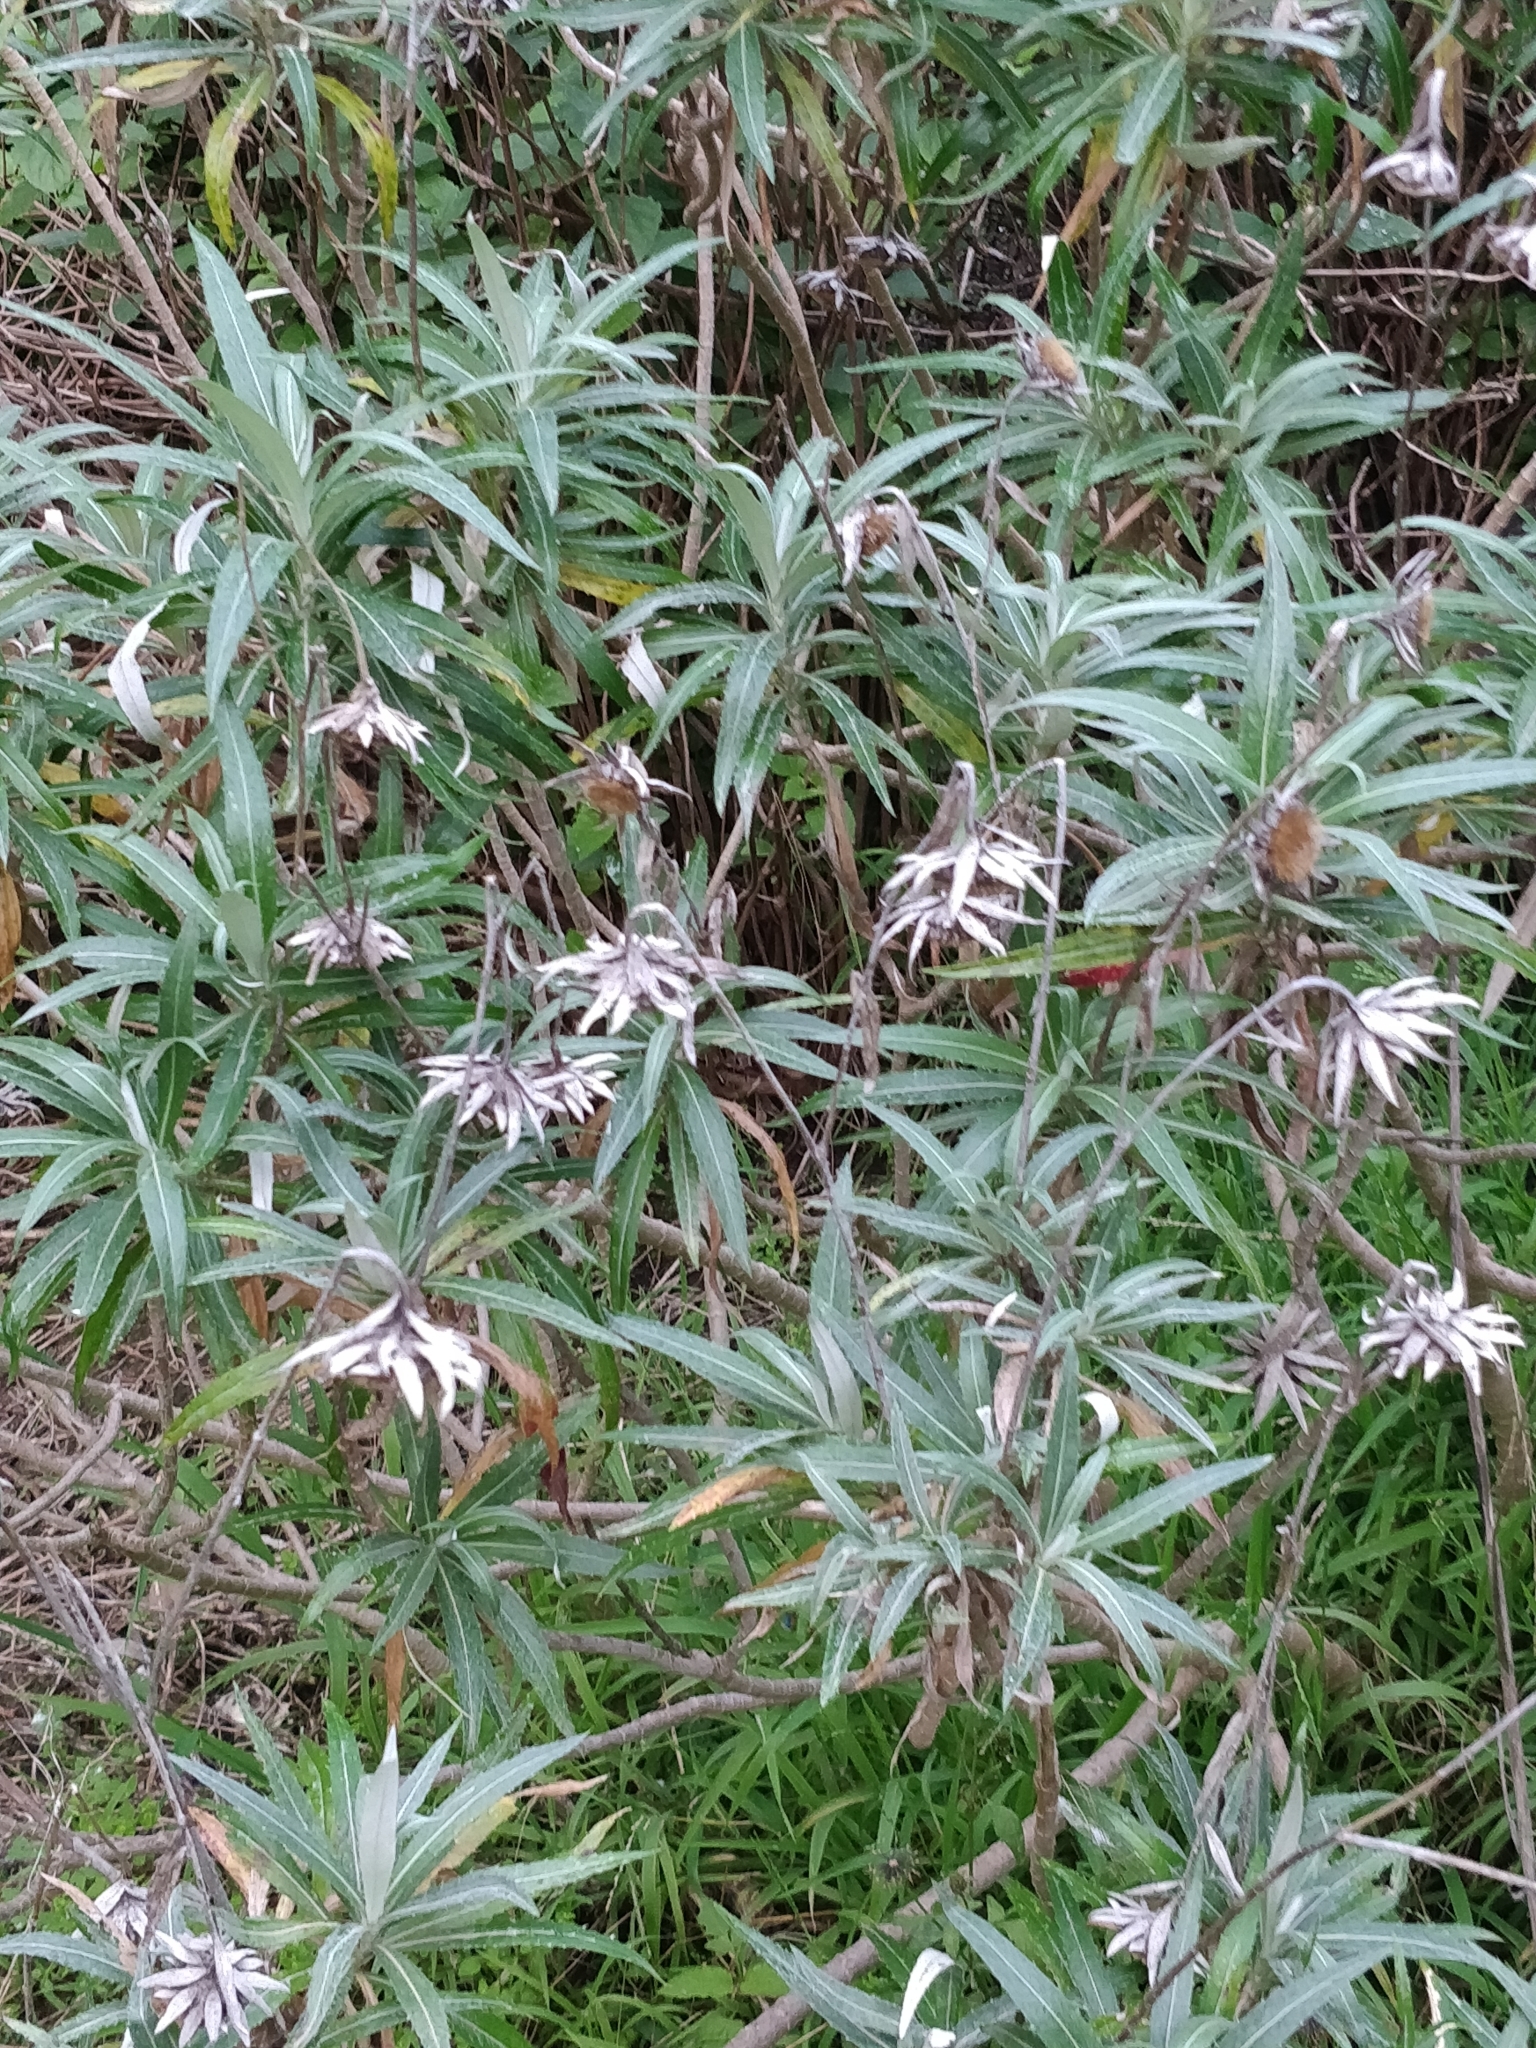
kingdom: Plantae
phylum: Tracheophyta
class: Magnoliopsida
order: Asterales
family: Asteraceae
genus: Carlina
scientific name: Carlina salicifolia
